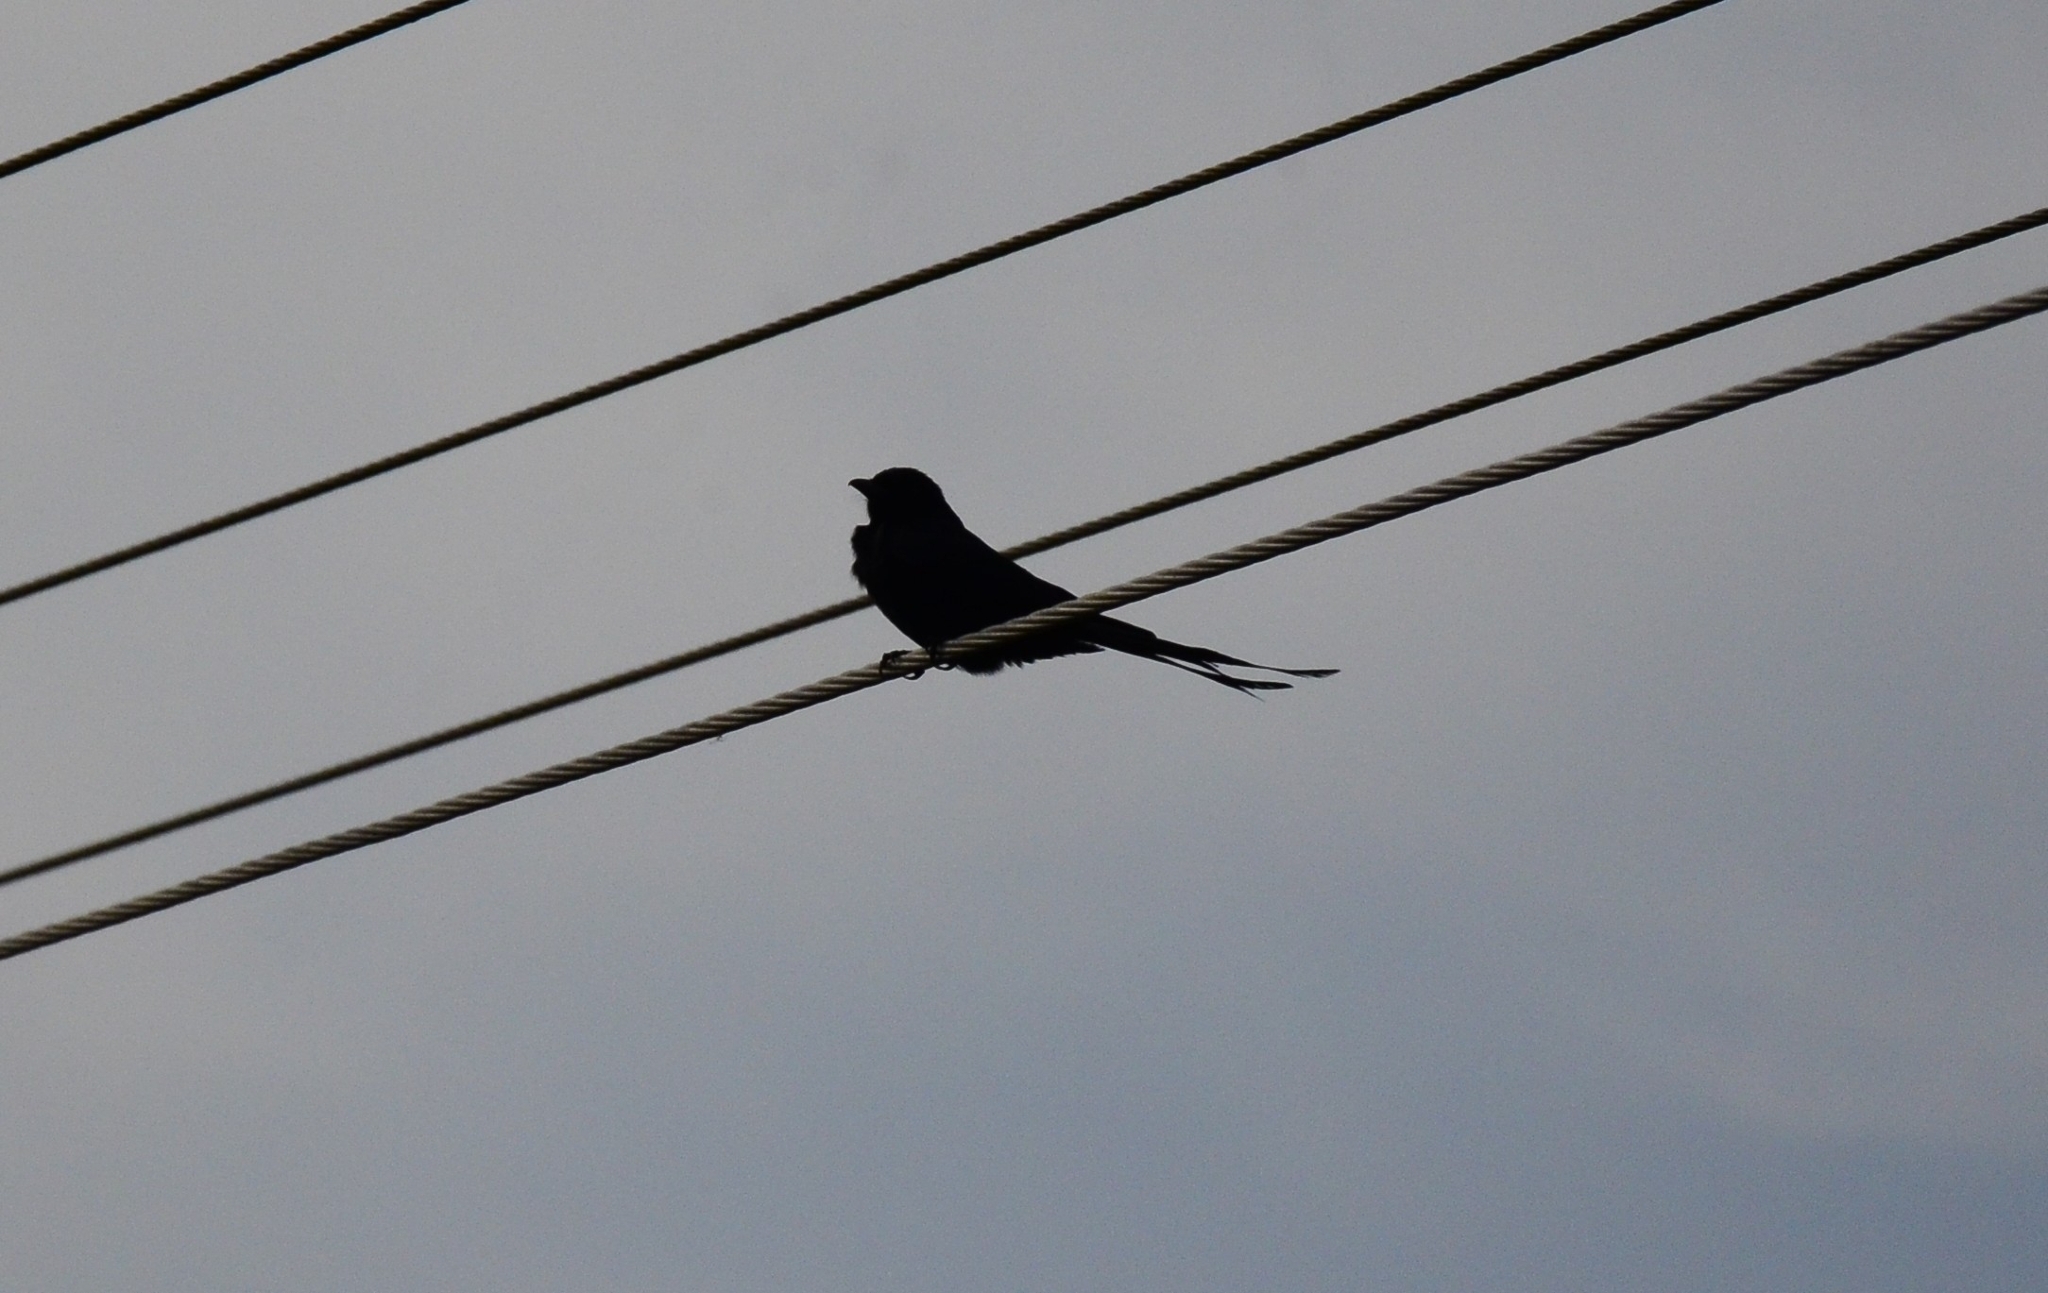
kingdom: Animalia
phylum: Chordata
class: Aves
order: Passeriformes
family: Dicruridae
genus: Dicrurus
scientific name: Dicrurus macrocercus
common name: Black drongo
